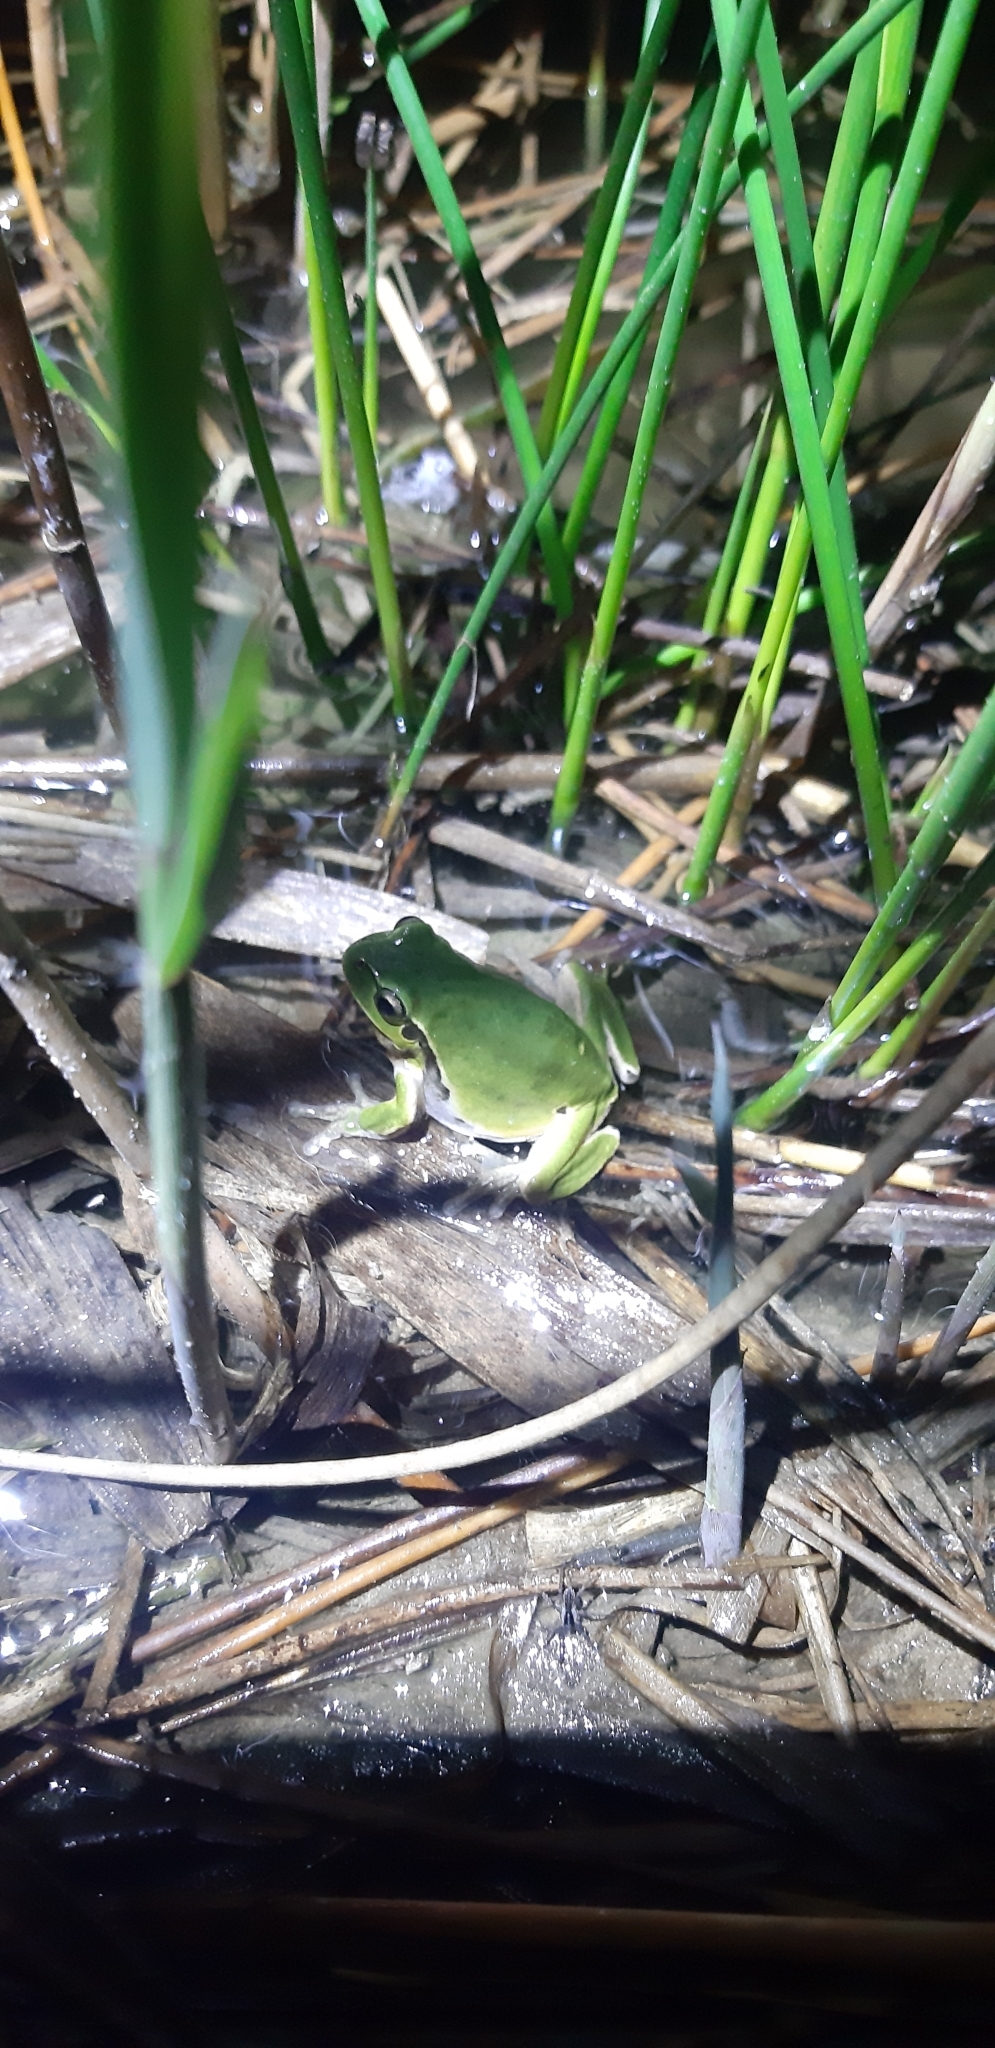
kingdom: Animalia
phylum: Chordata
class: Amphibia
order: Anura
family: Hylidae
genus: Hyla
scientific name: Hyla intermedia
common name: Italian tree frog
